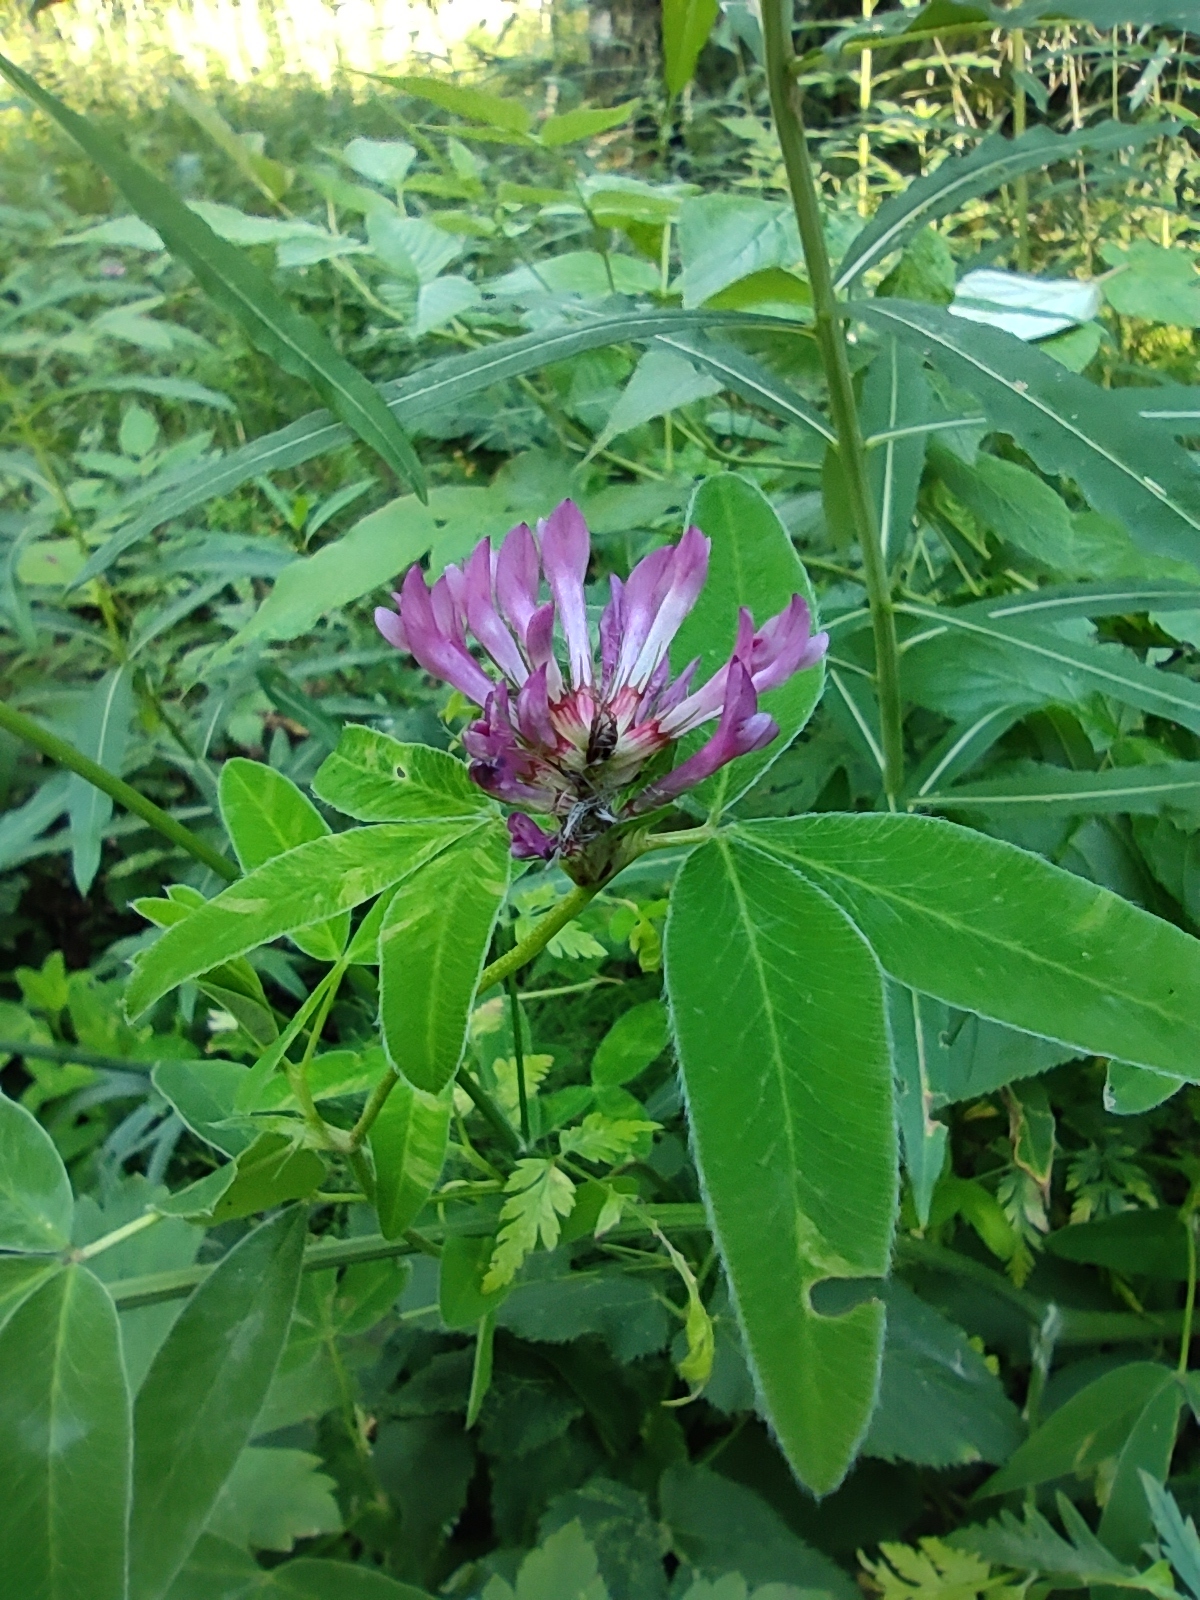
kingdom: Plantae
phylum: Tracheophyta
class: Magnoliopsida
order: Fabales
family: Fabaceae
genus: Trifolium
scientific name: Trifolium medium
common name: Zigzag clover
